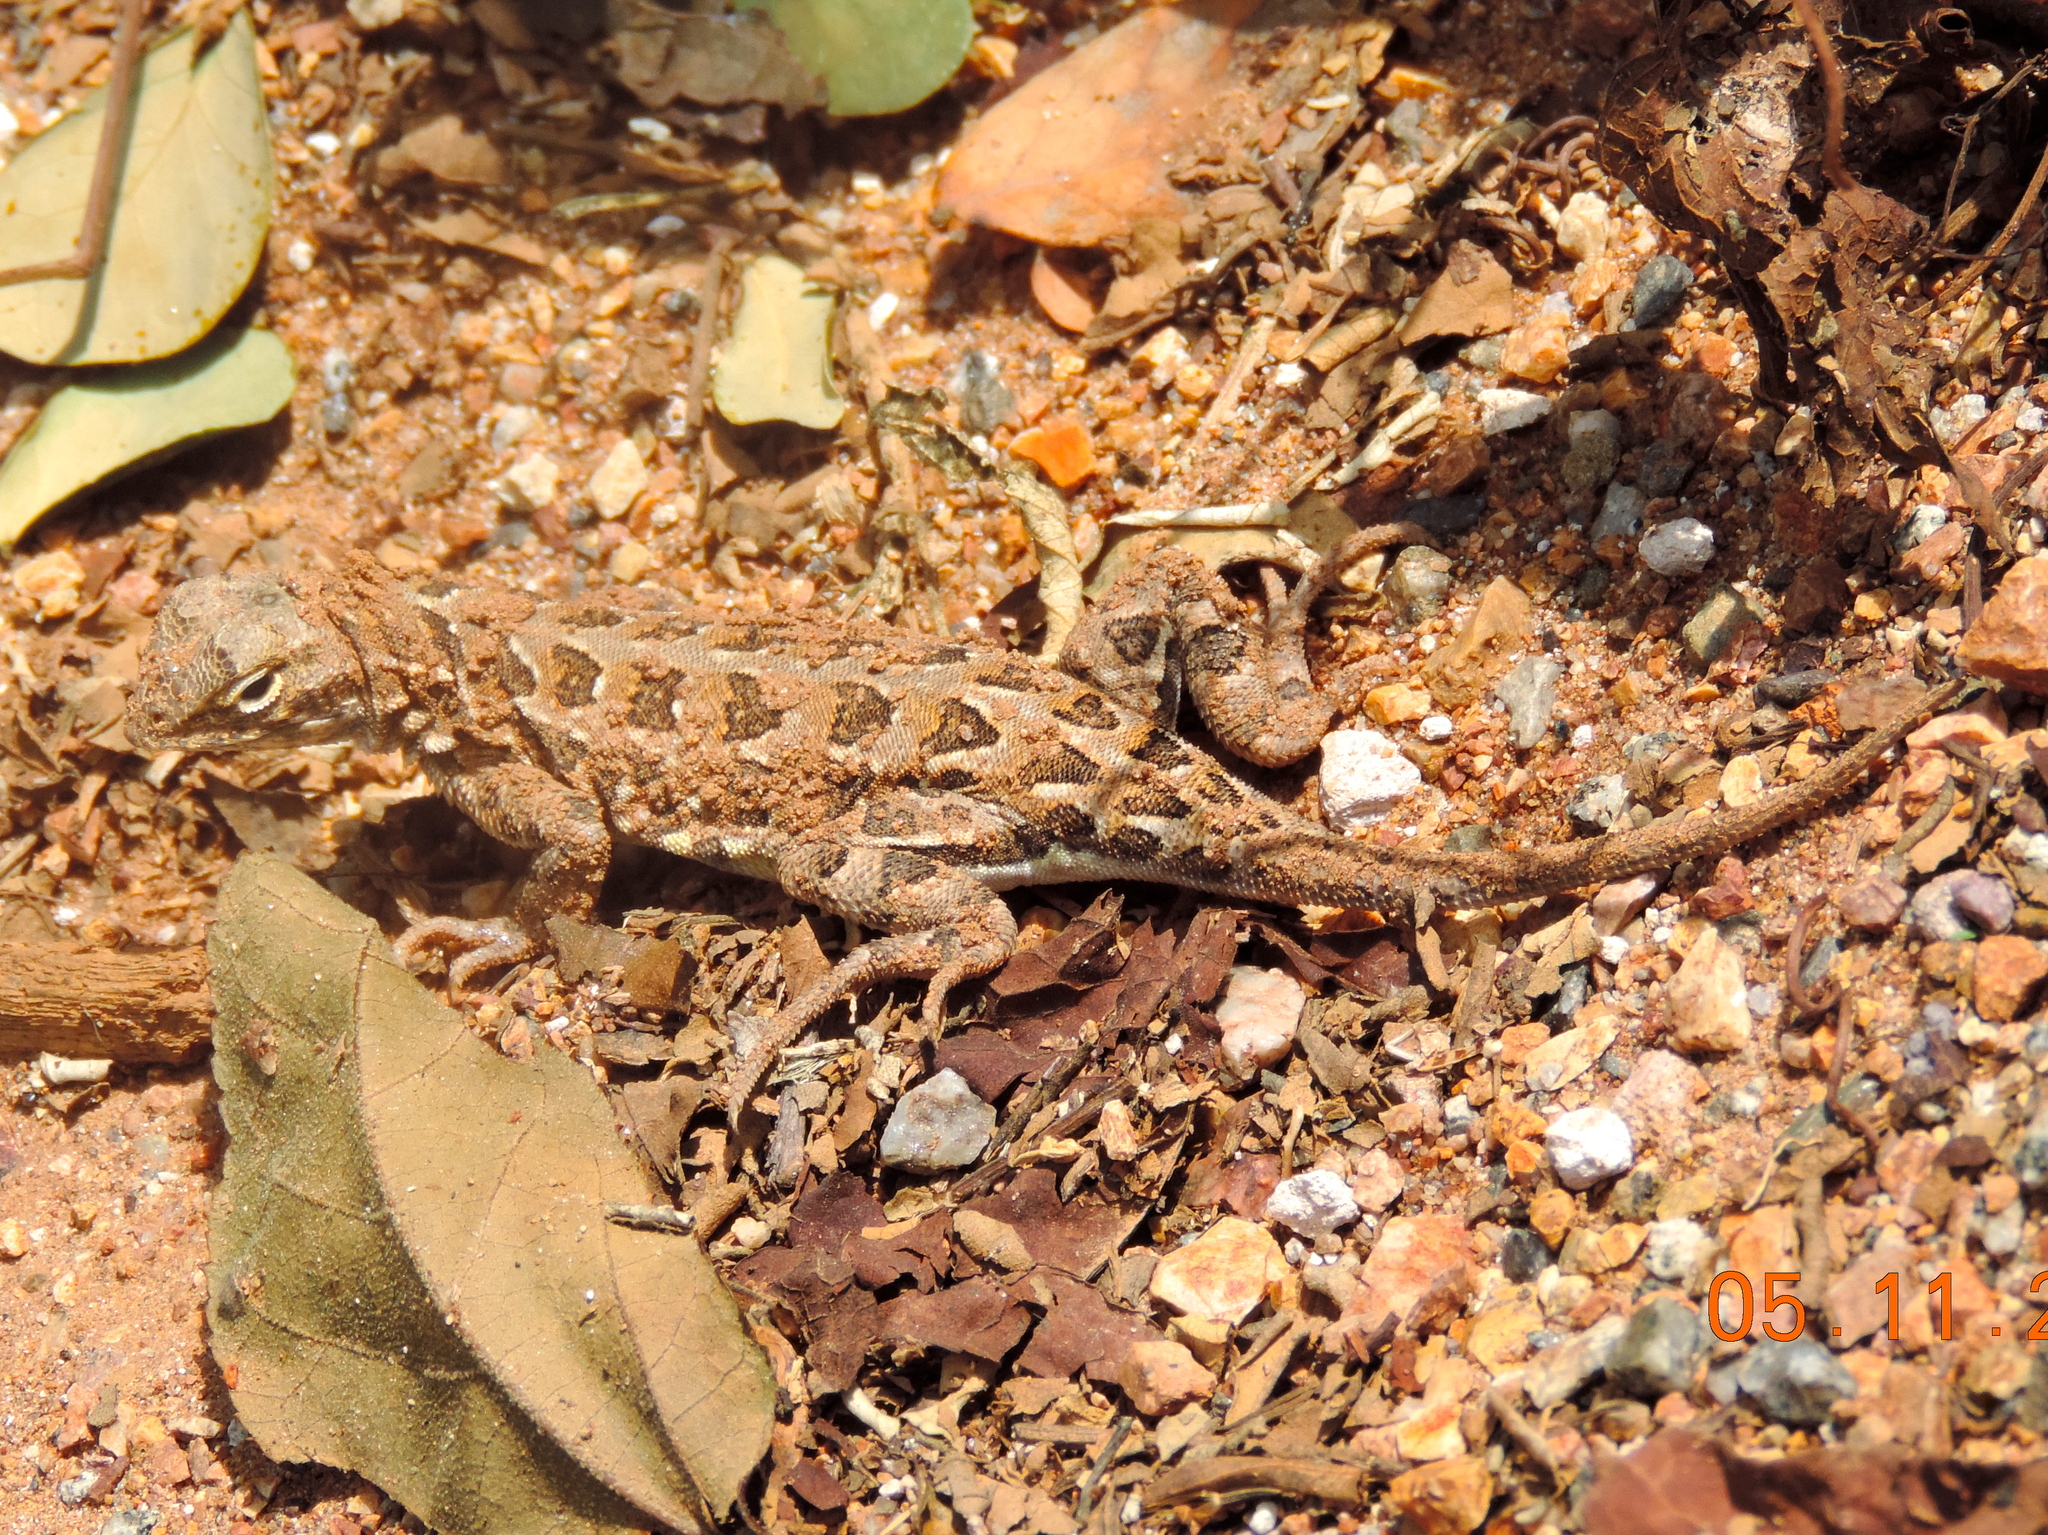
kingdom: Animalia
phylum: Chordata
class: Squamata
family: Phrynosomatidae
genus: Holbrookia
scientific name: Holbrookia elegans
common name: Elegant earless lizard
